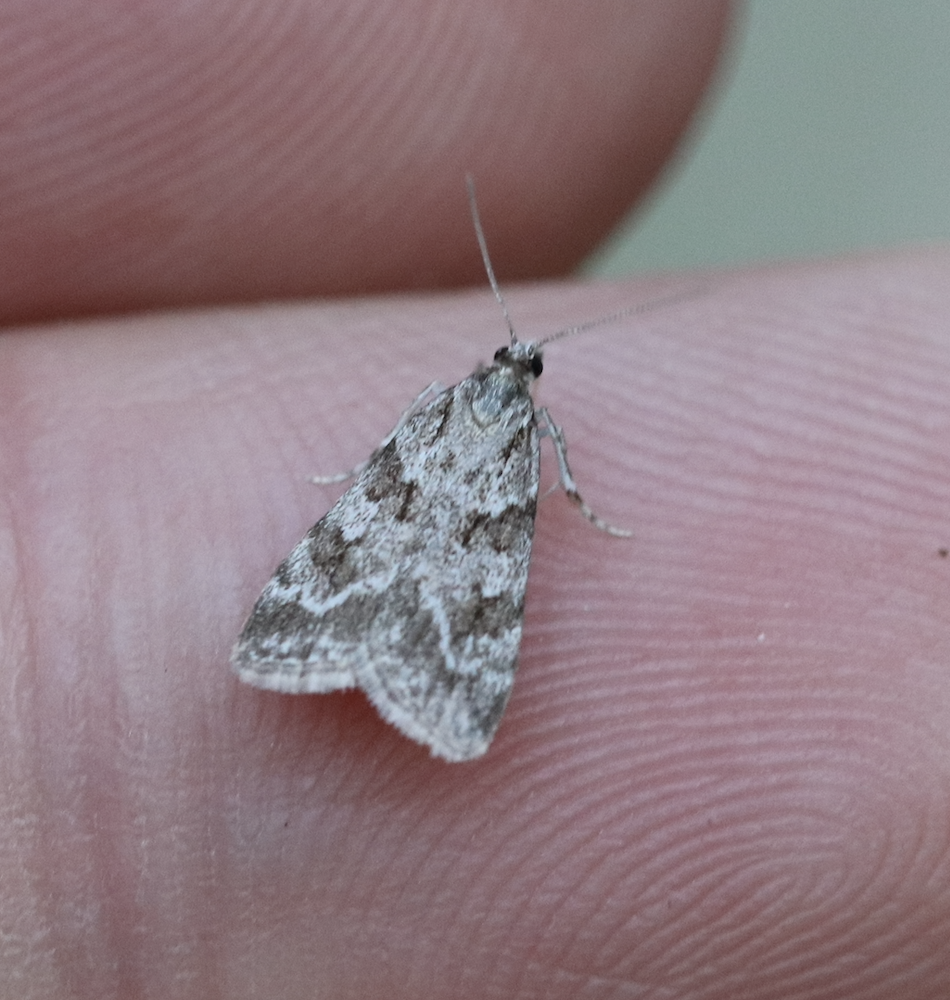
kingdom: Animalia
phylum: Arthropoda
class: Insecta
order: Lepidoptera
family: Crambidae
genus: Scoparia
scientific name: Scoparia biplagialis
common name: Double-striped scoparia moth
